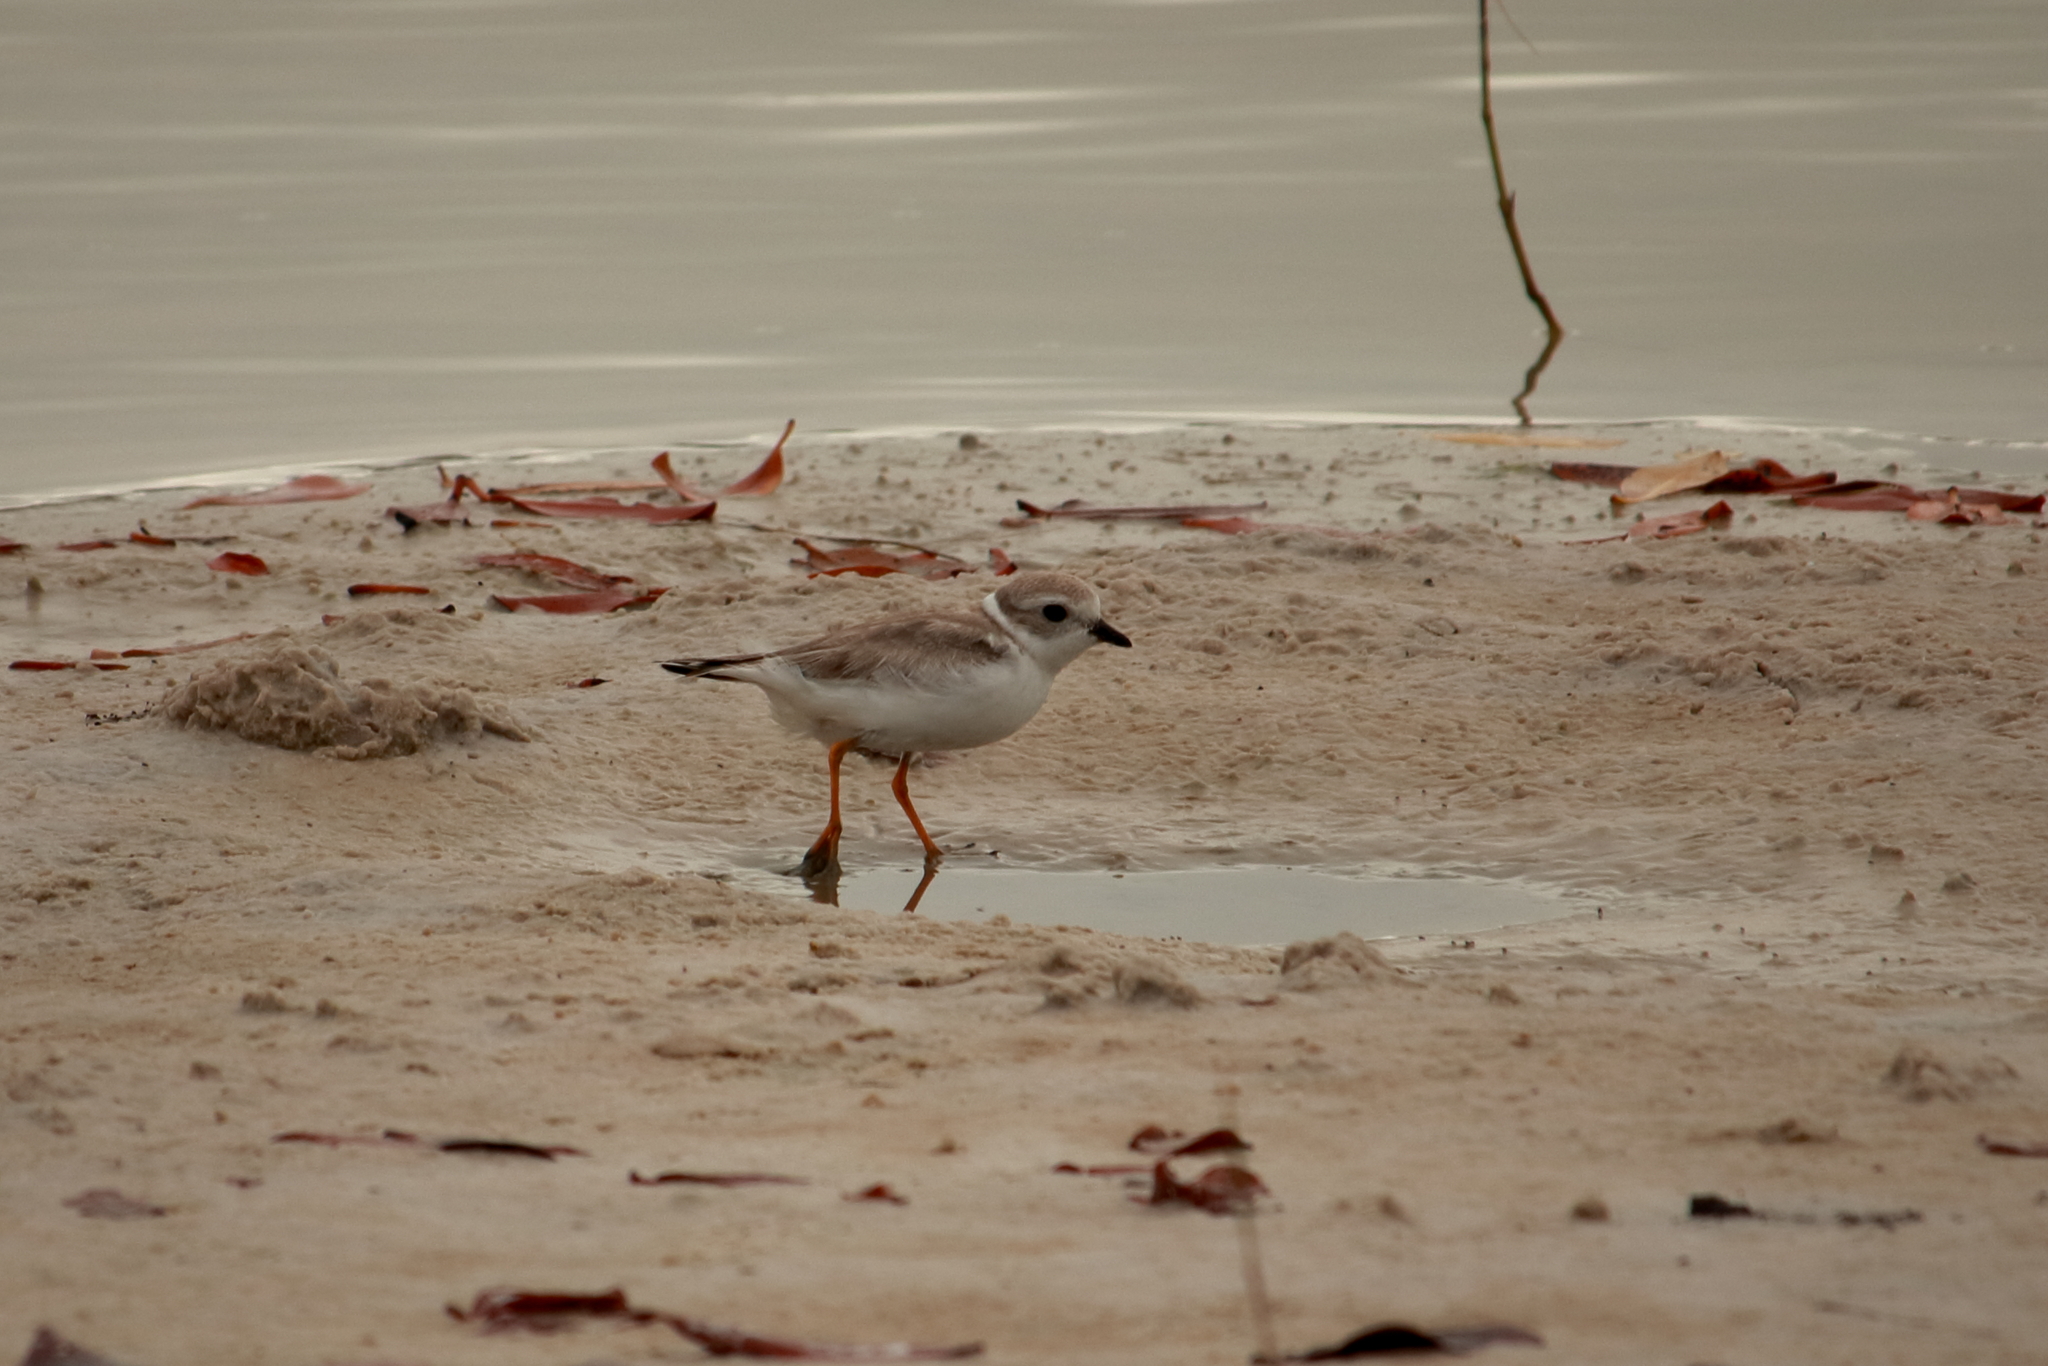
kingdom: Animalia
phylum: Chordata
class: Aves
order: Charadriiformes
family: Charadriidae
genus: Charadrius
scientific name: Charadrius melodus
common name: Piping plover
